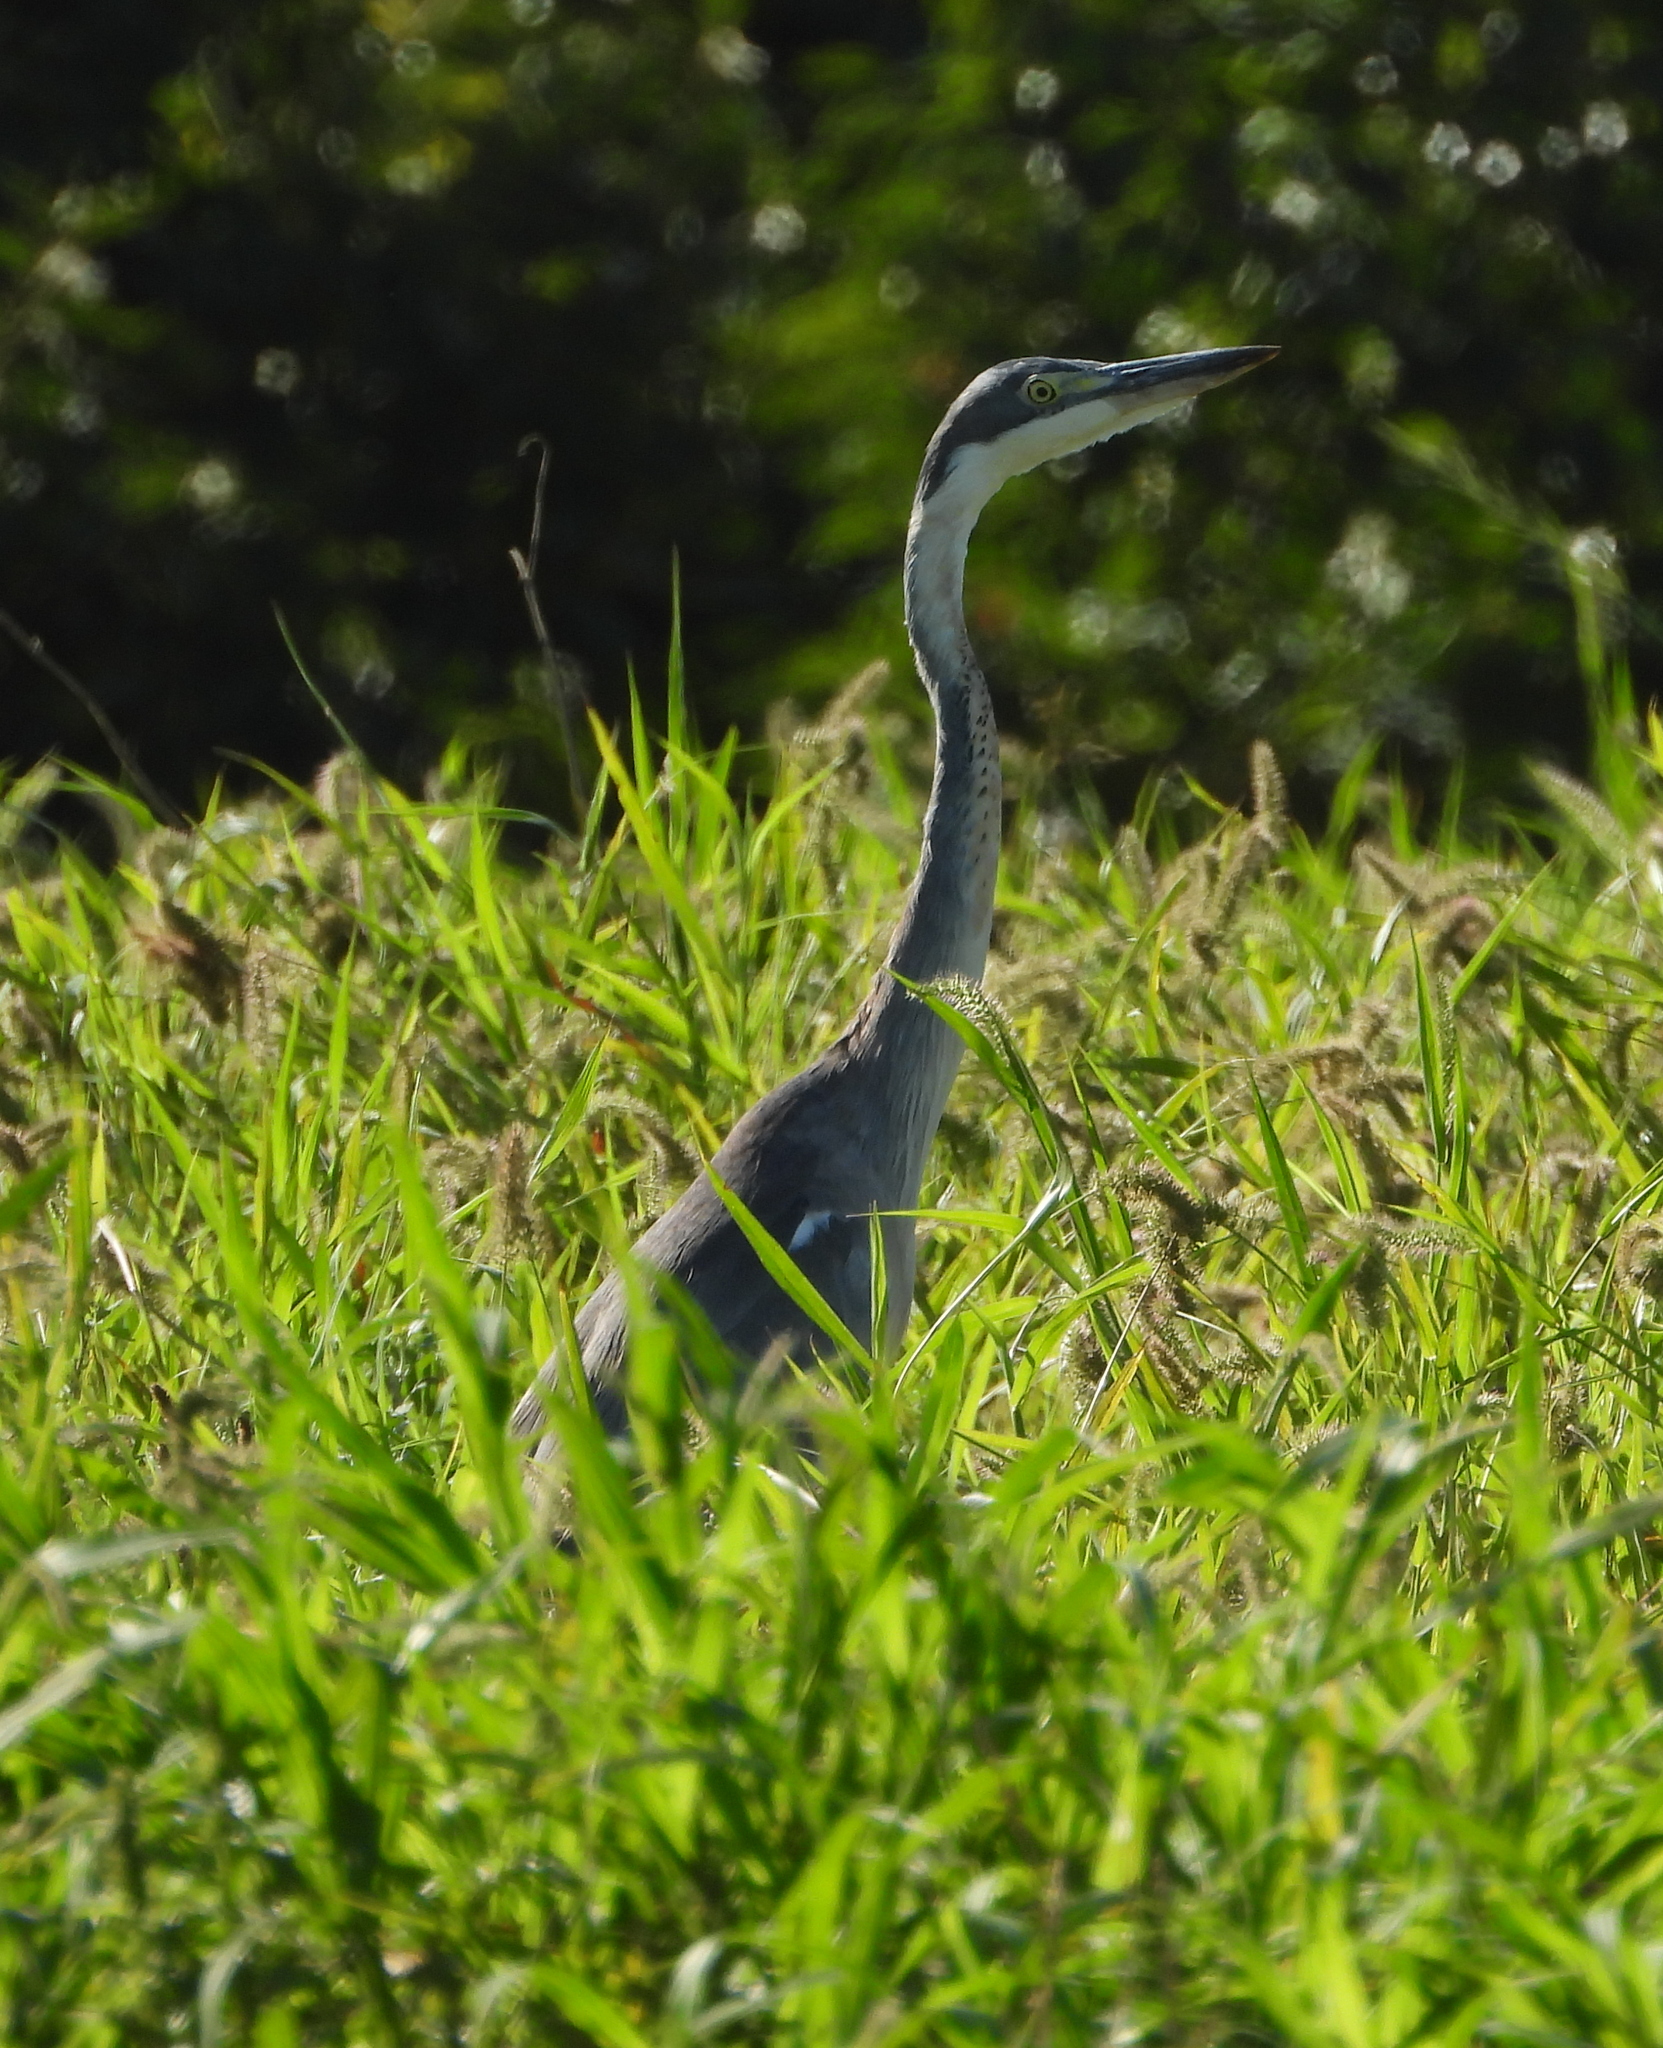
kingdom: Animalia
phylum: Chordata
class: Aves
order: Pelecaniformes
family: Ardeidae
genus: Ardea
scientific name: Ardea melanocephala
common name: Black-headed heron
